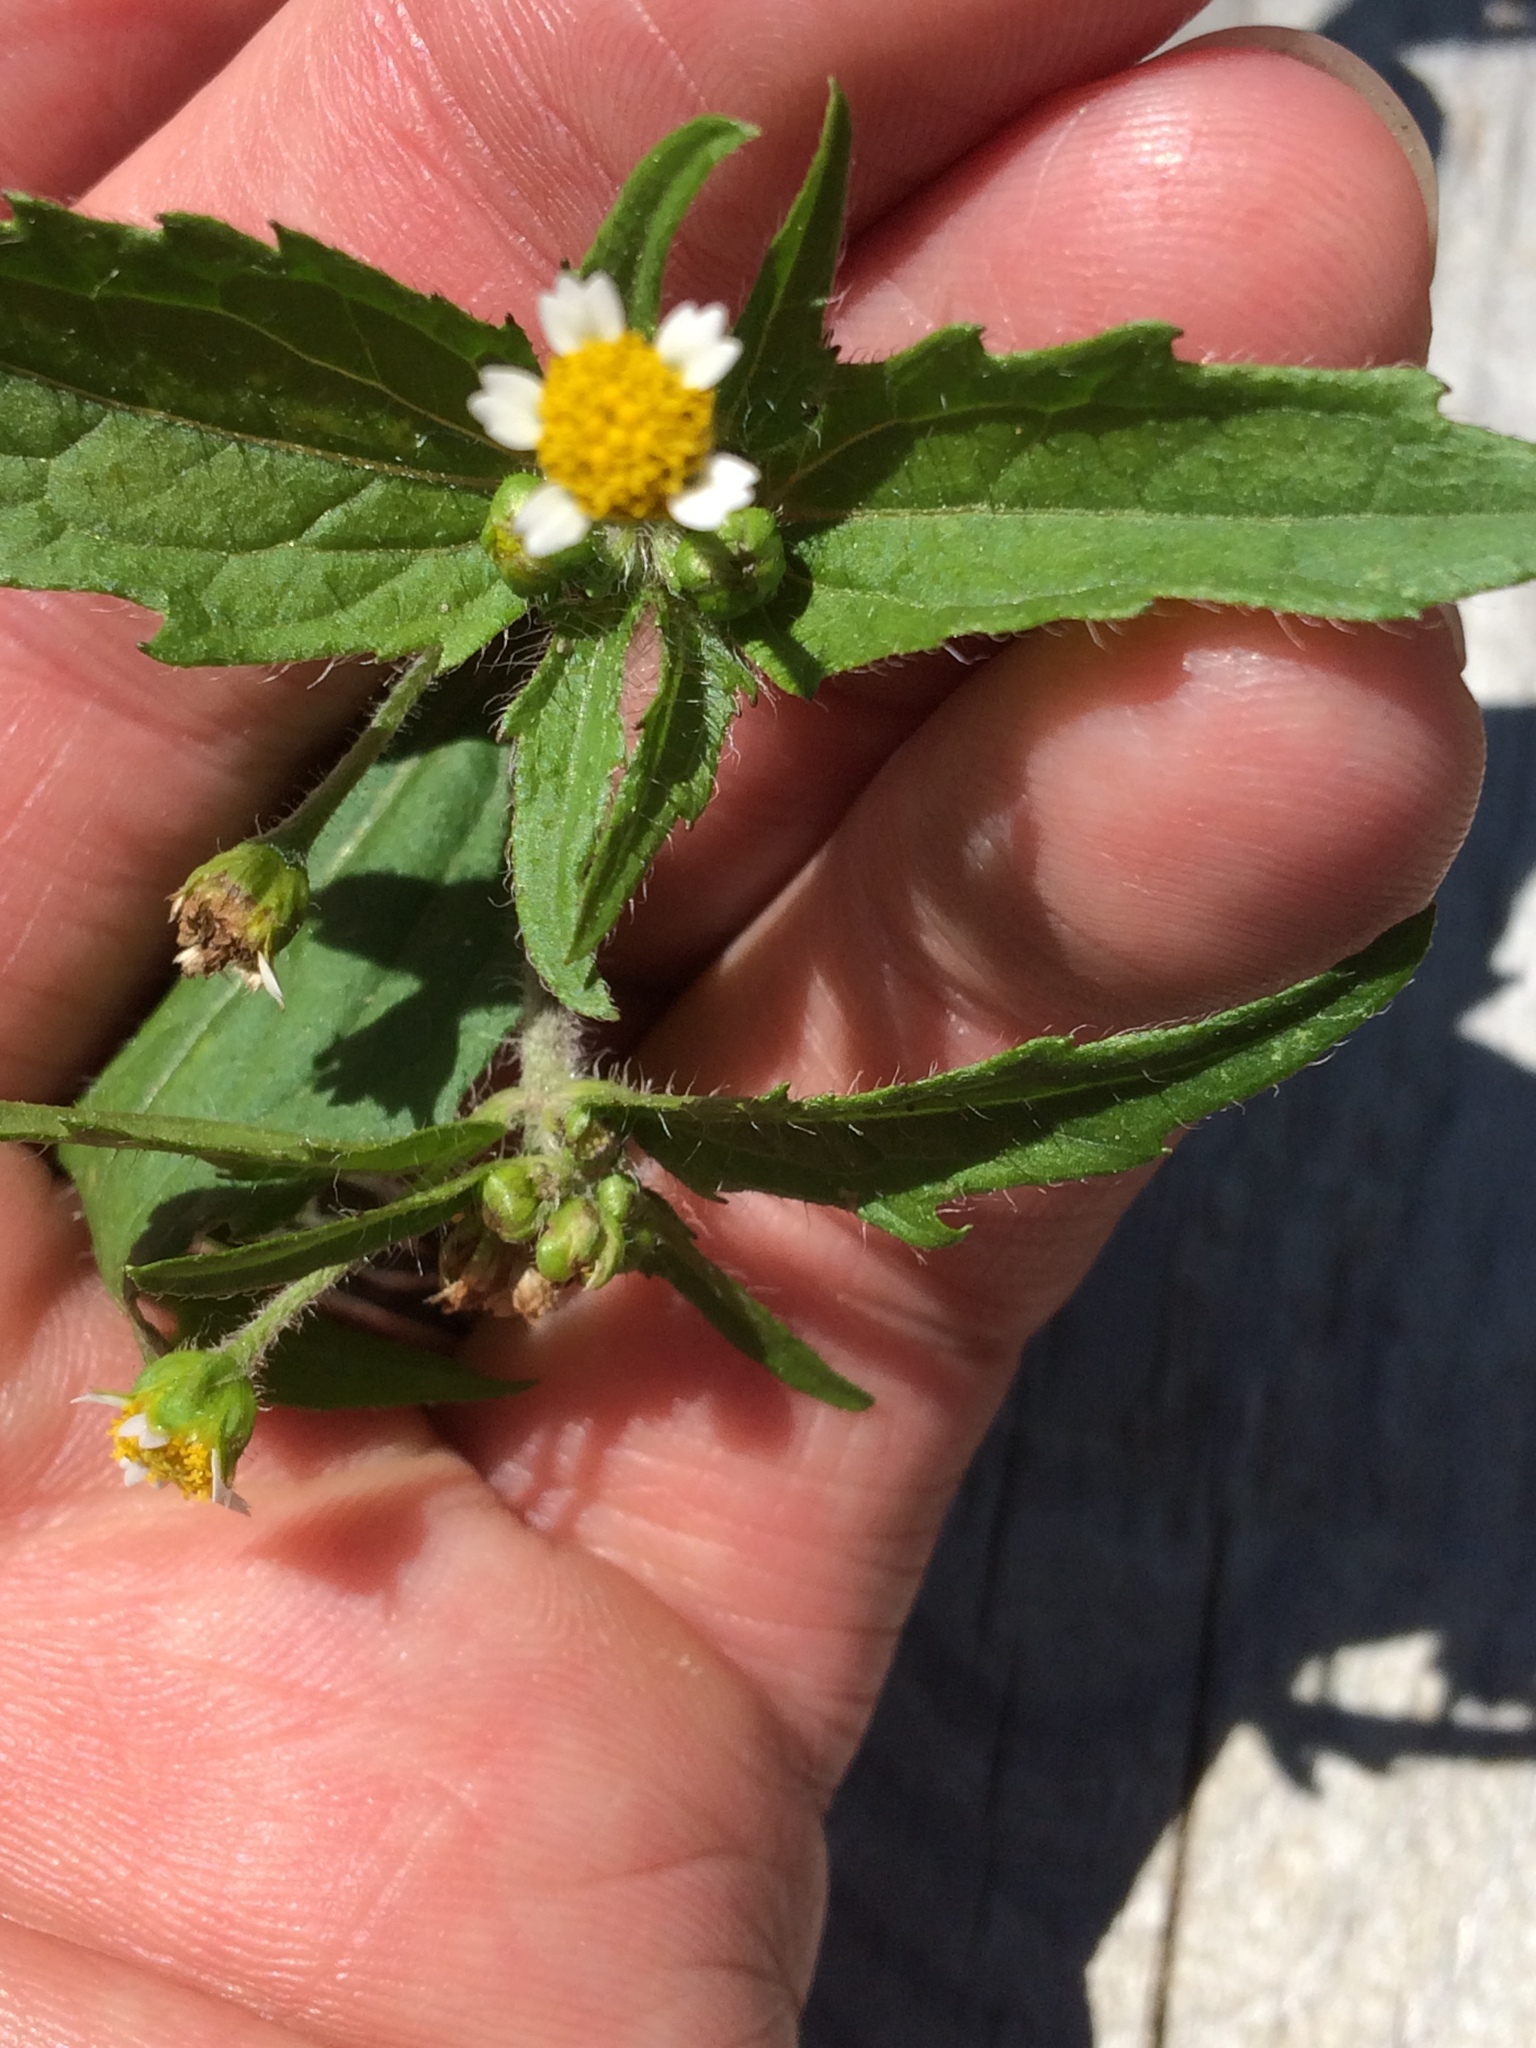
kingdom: Plantae
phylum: Tracheophyta
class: Magnoliopsida
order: Asterales
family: Asteraceae
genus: Galinsoga
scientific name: Galinsoga quadriradiata
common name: Shaggy soldier
